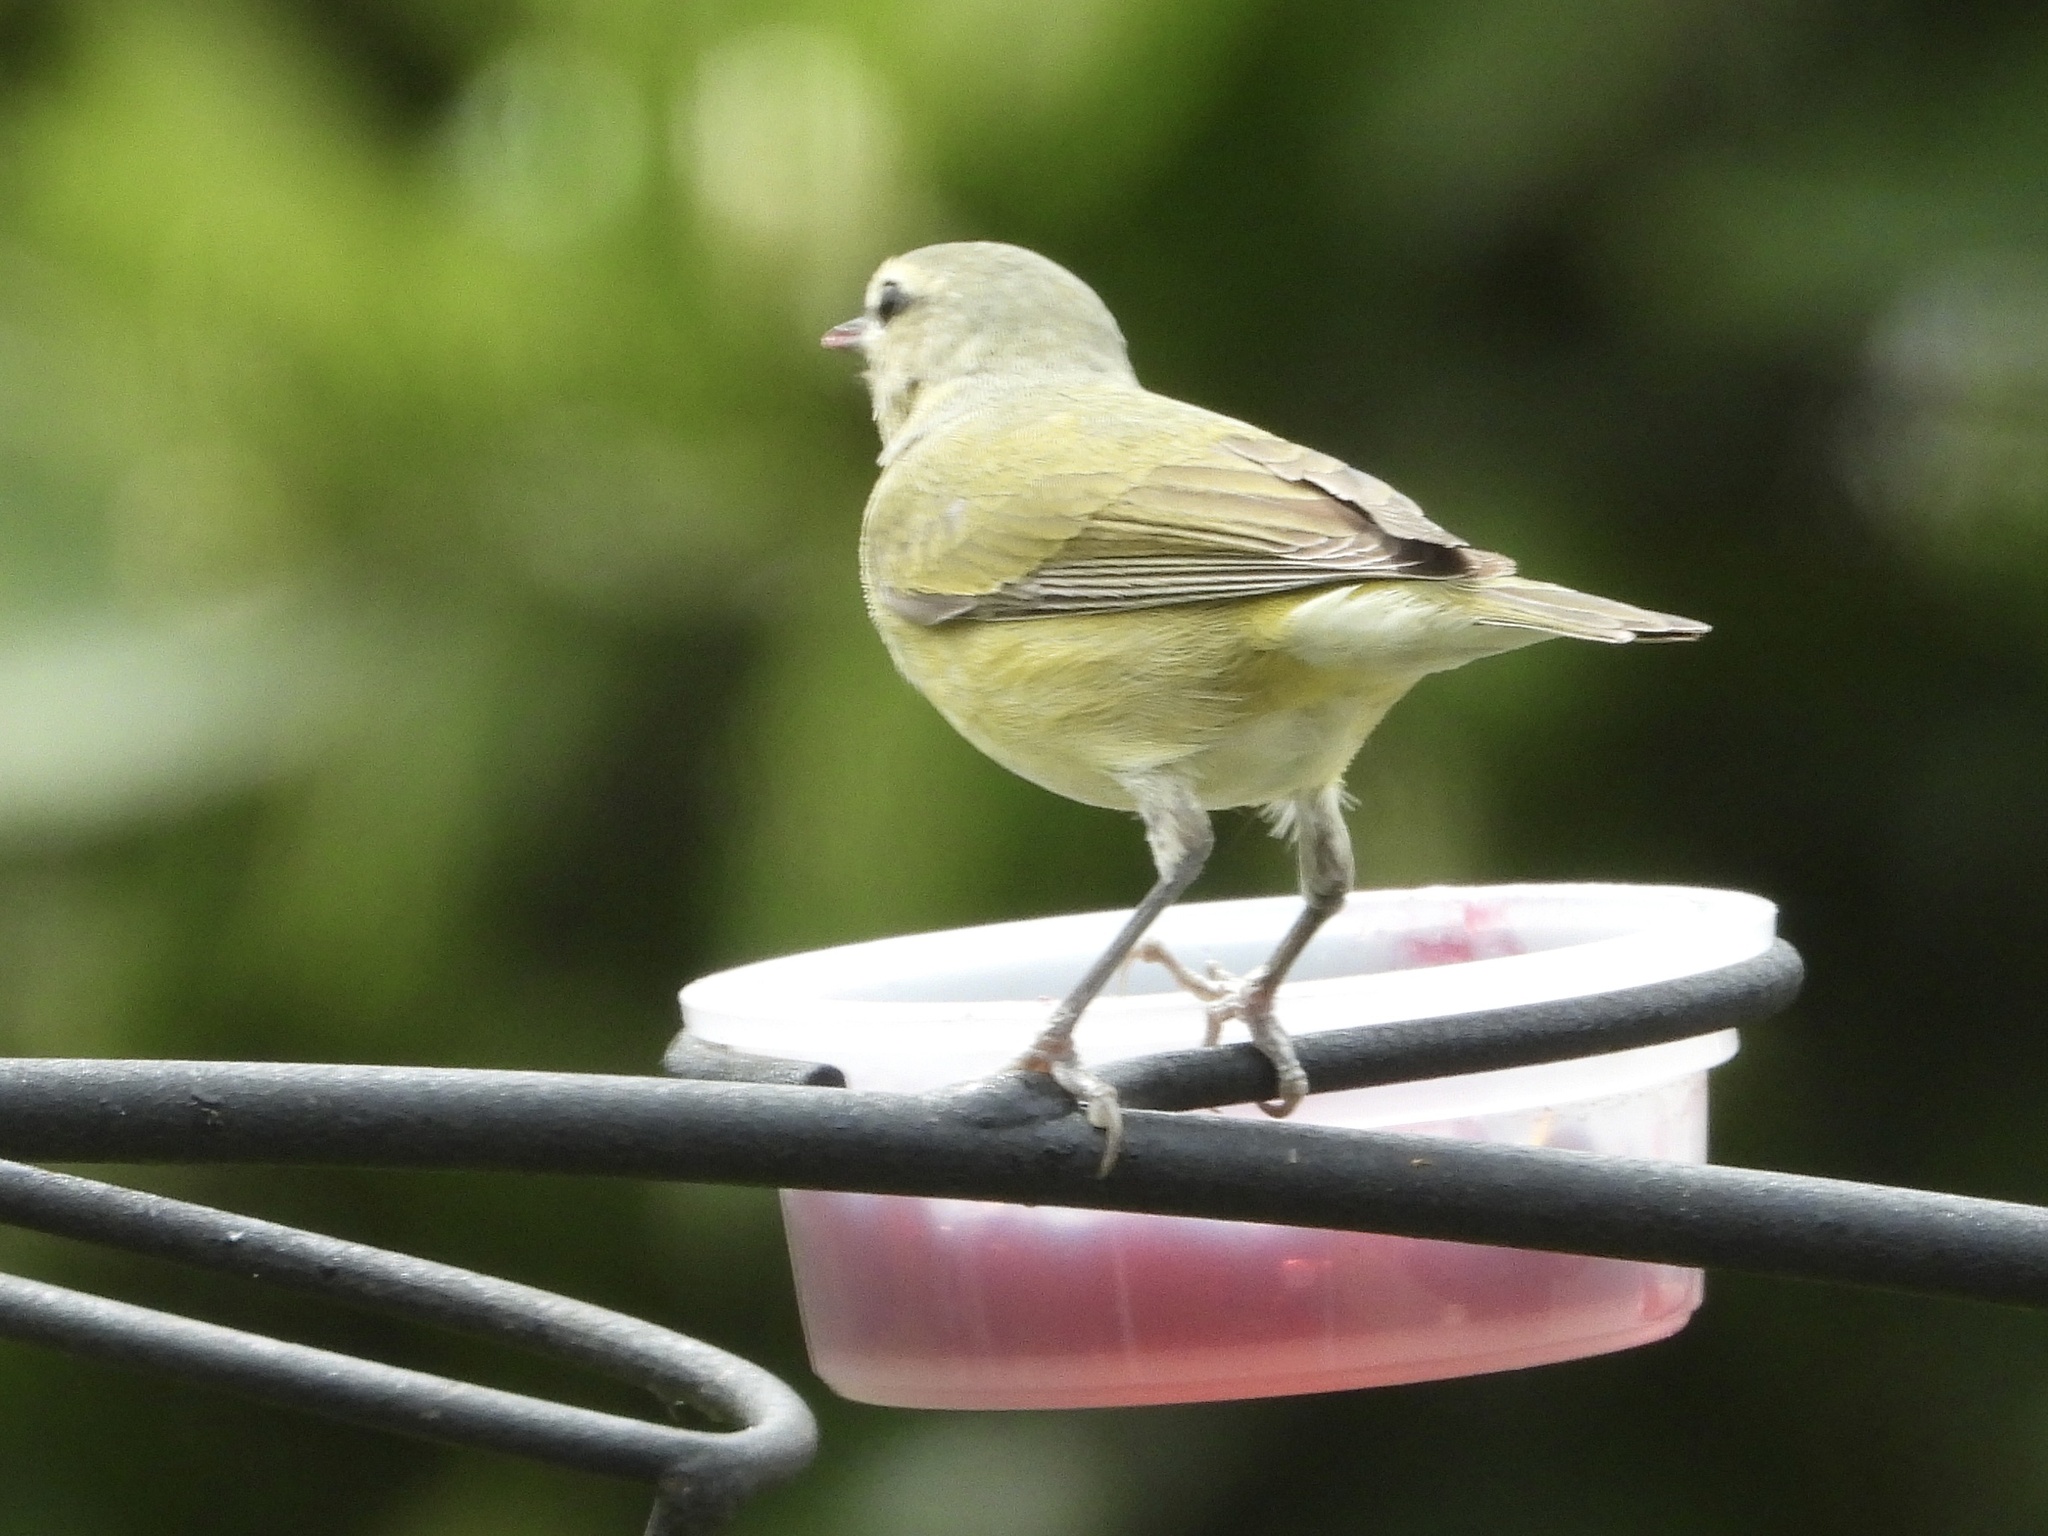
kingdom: Animalia
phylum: Chordata
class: Aves
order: Passeriformes
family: Parulidae
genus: Leiothlypis
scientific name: Leiothlypis peregrina
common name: Tennessee warbler
